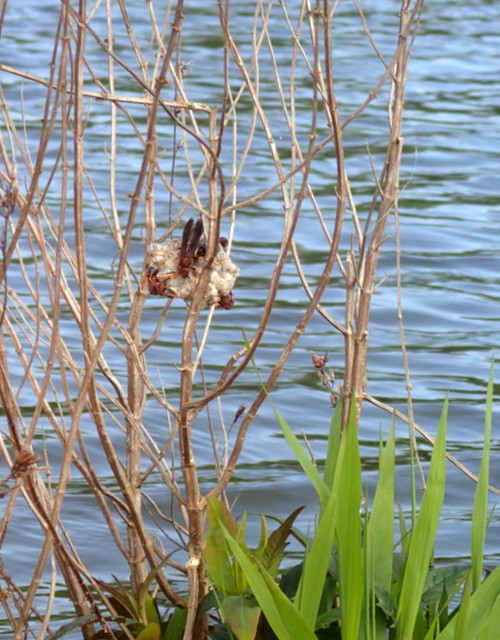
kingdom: Animalia
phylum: Arthropoda
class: Insecta
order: Hymenoptera
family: Eumenidae
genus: Polistes
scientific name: Polistes annularis
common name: Ringed paper wasp
